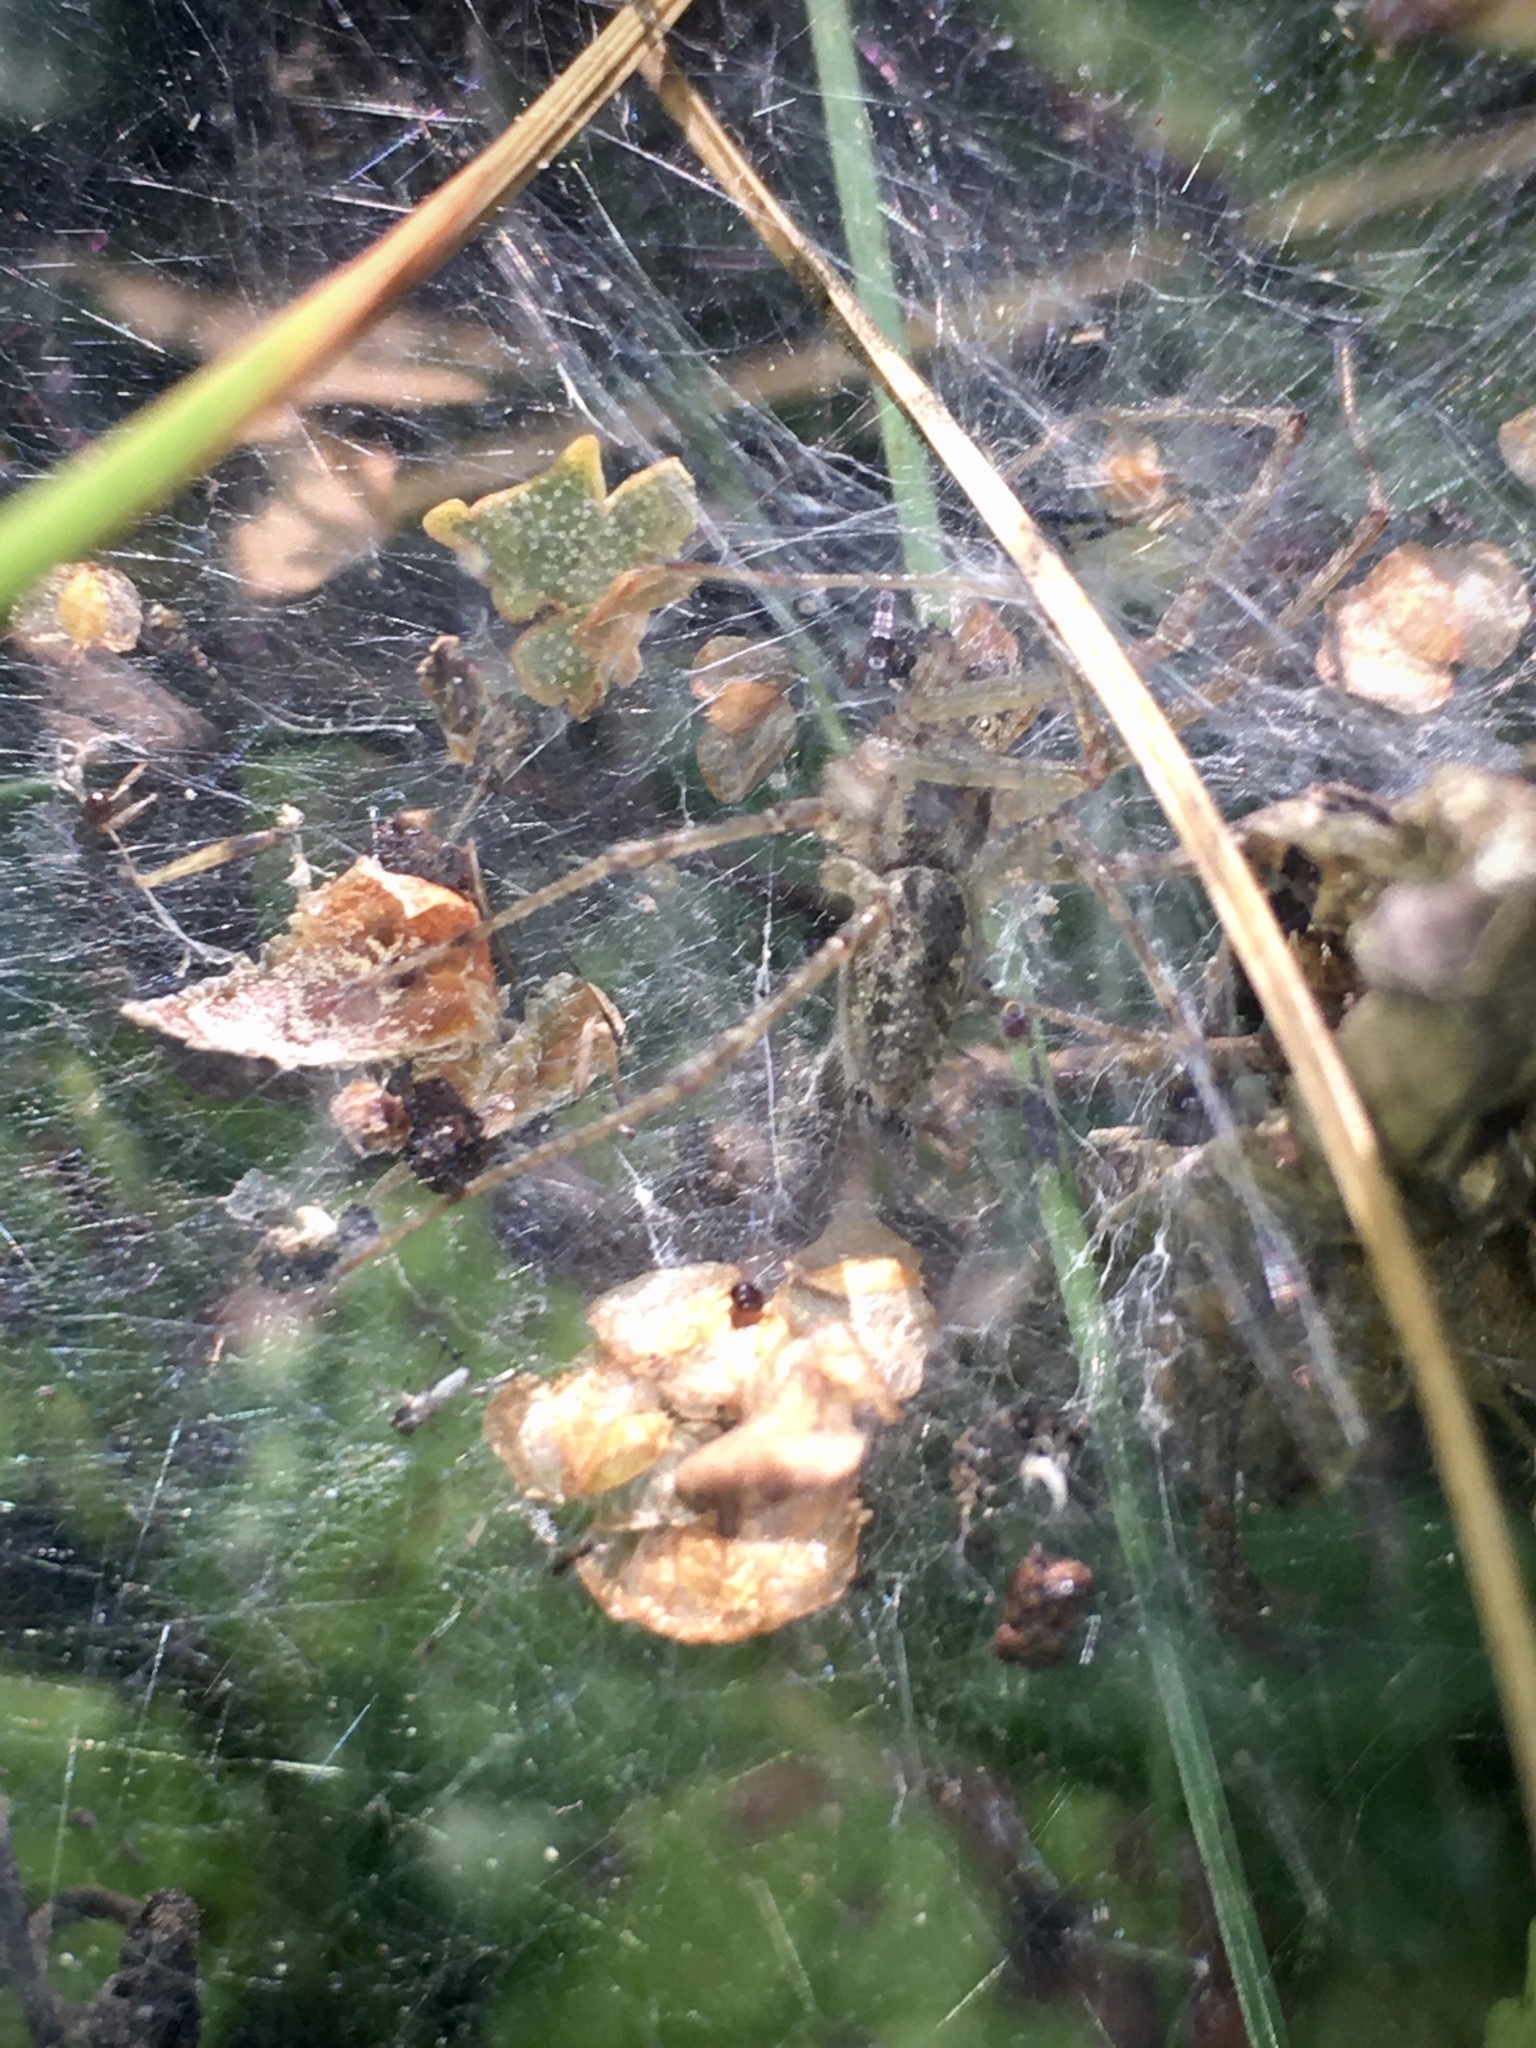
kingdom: Animalia
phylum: Arthropoda
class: Arachnida
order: Araneae
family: Agelenidae
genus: Allagelena
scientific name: Allagelena gracilens
